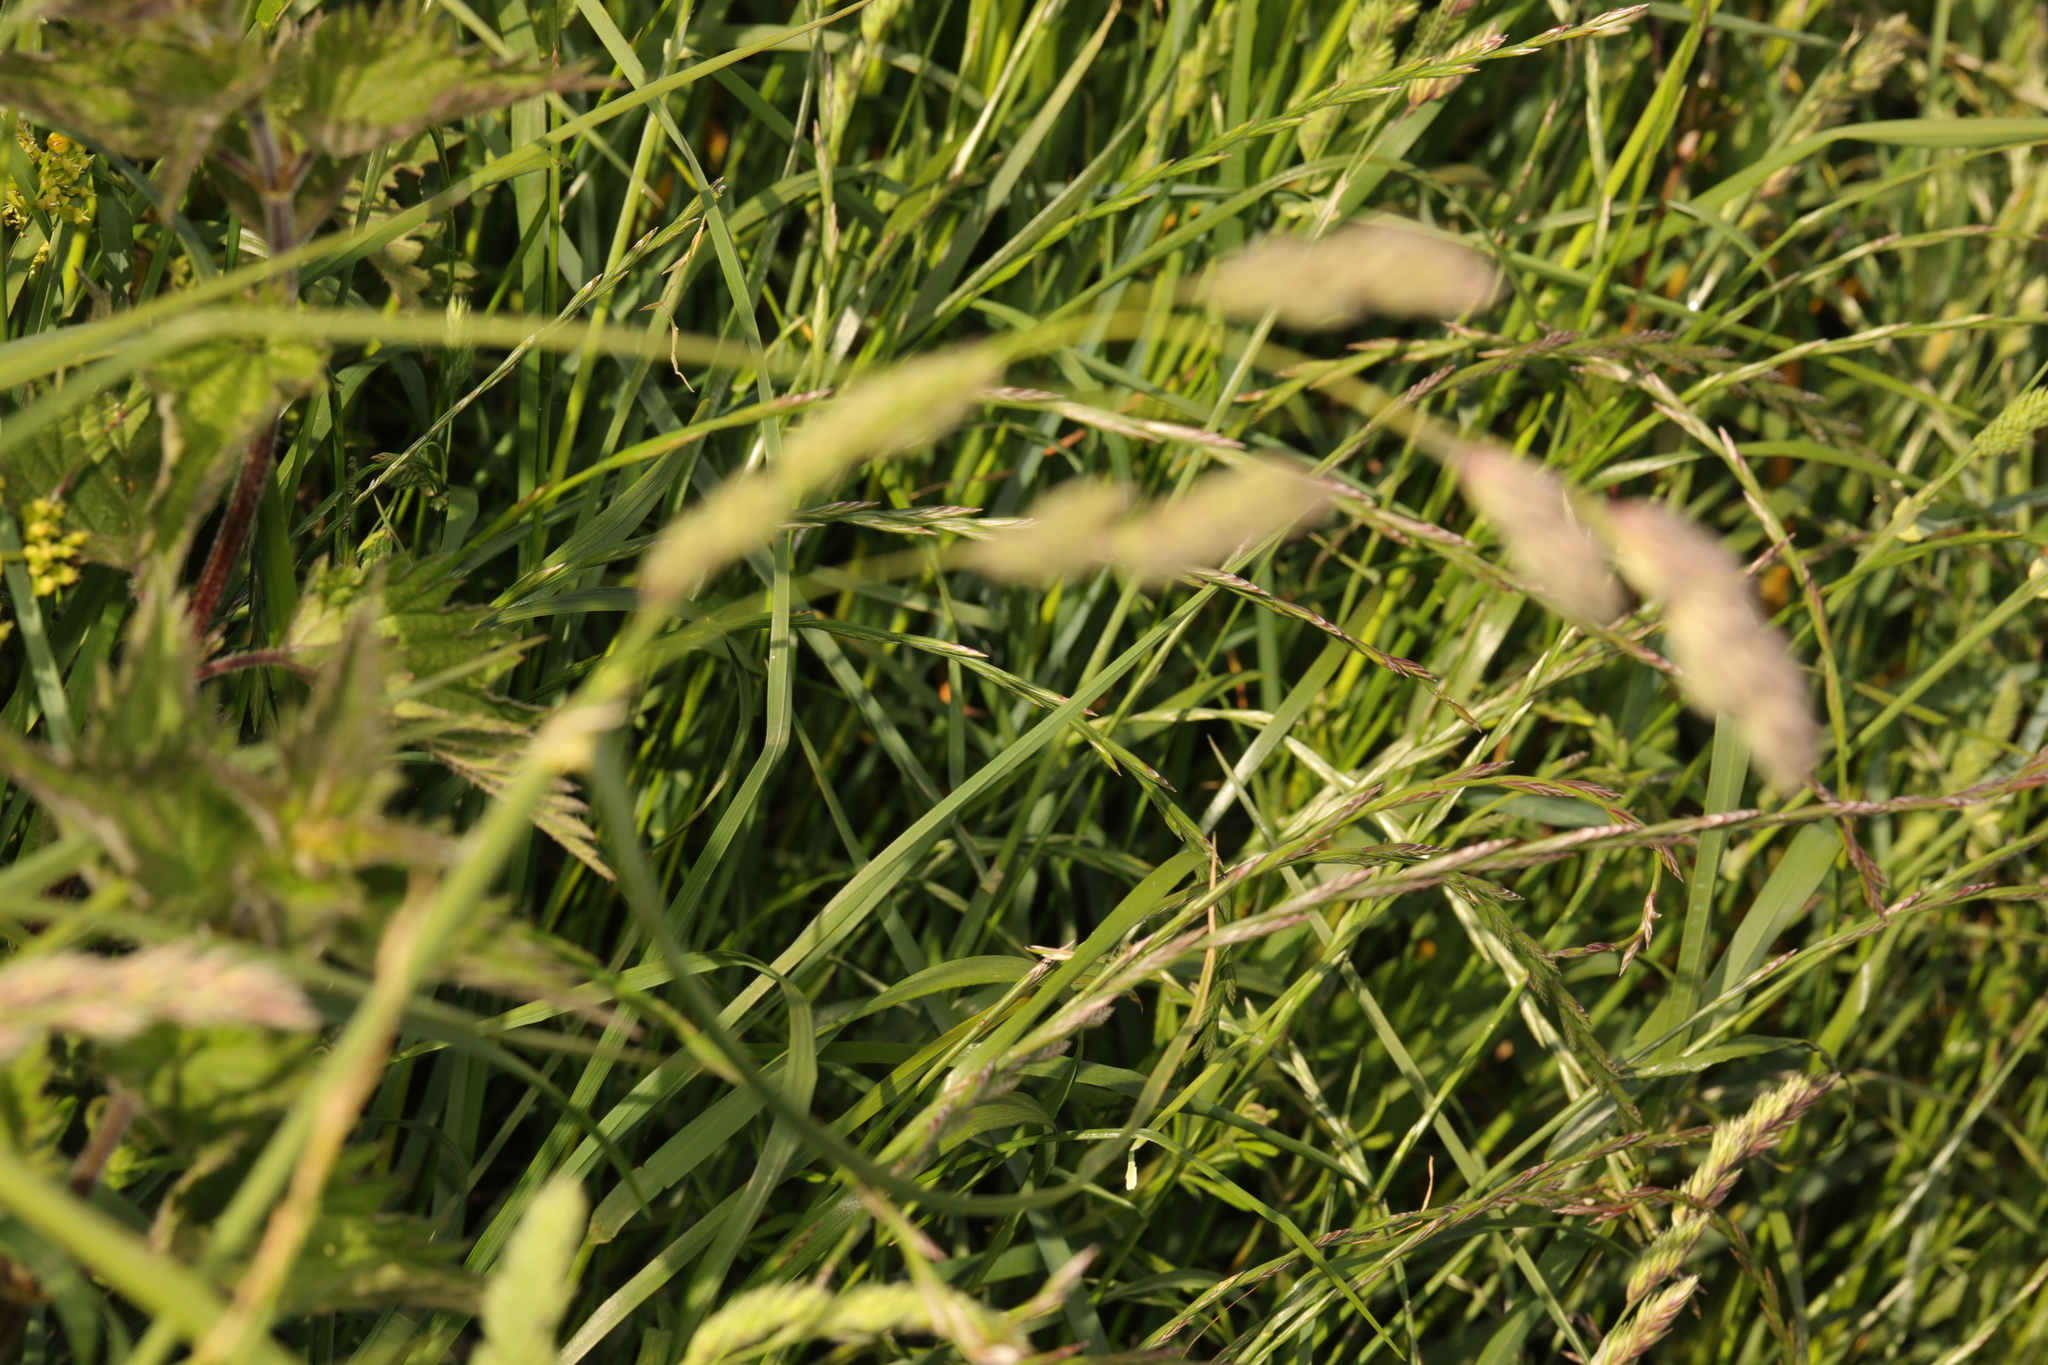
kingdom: Plantae
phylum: Tracheophyta
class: Liliopsida
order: Poales
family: Poaceae
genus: Dactylis
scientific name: Dactylis glomerata
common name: Orchardgrass
